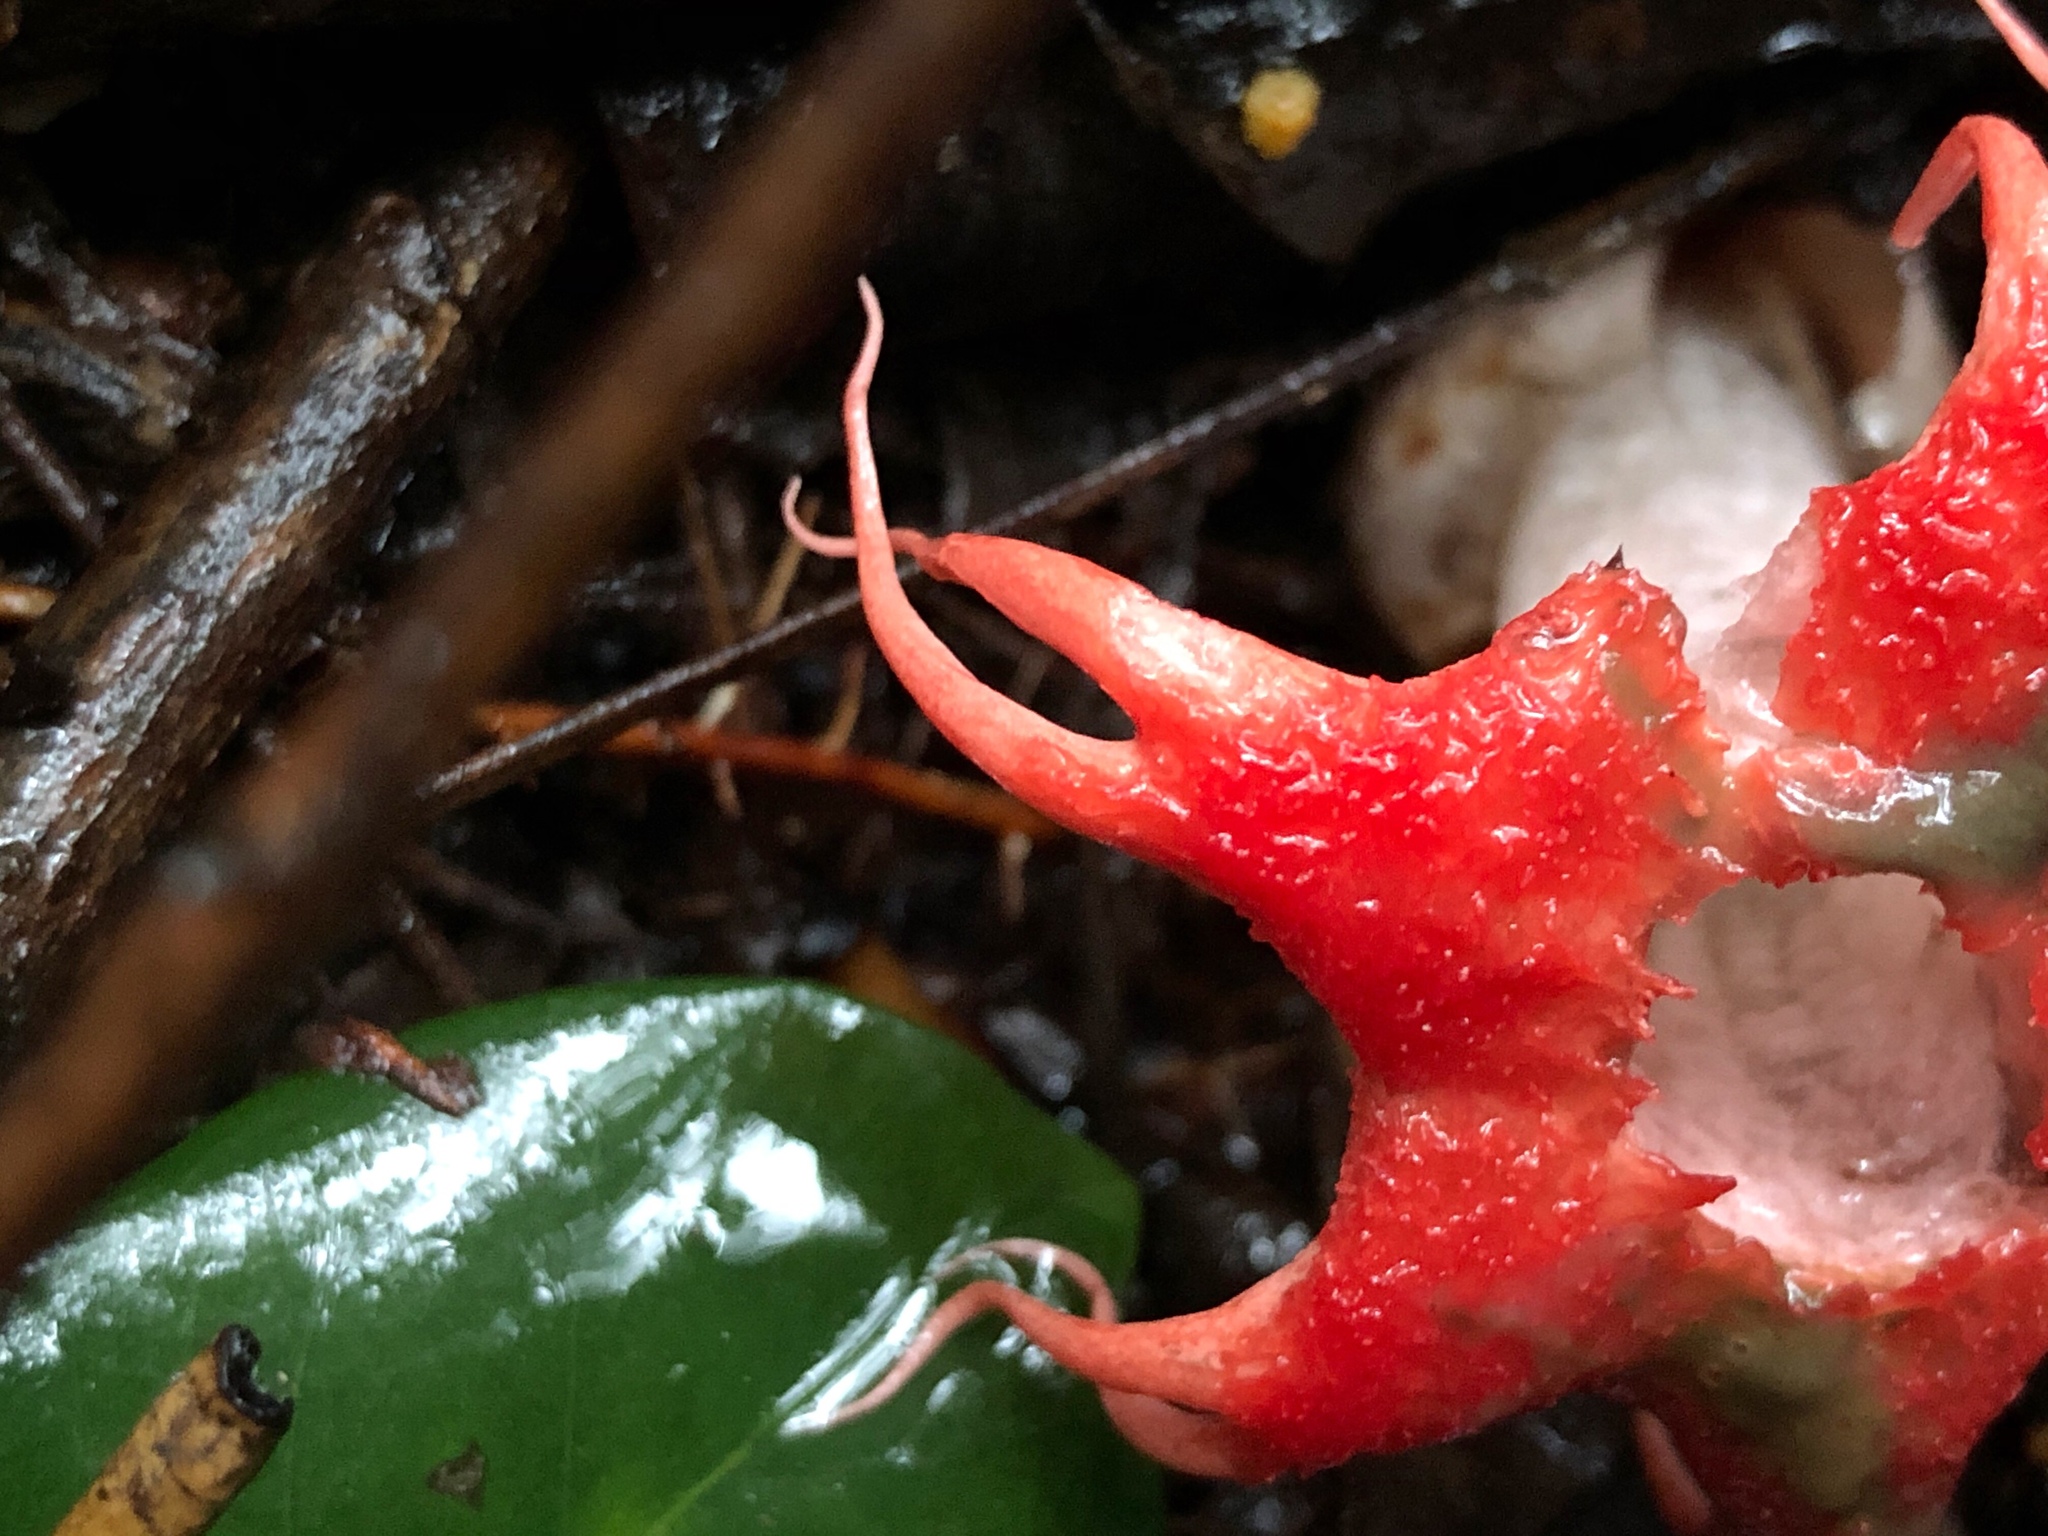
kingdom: Fungi
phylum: Basidiomycota
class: Agaricomycetes
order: Phallales
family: Phallaceae
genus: Aseroe
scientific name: Aseroe rubra
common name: Starfish fungus
